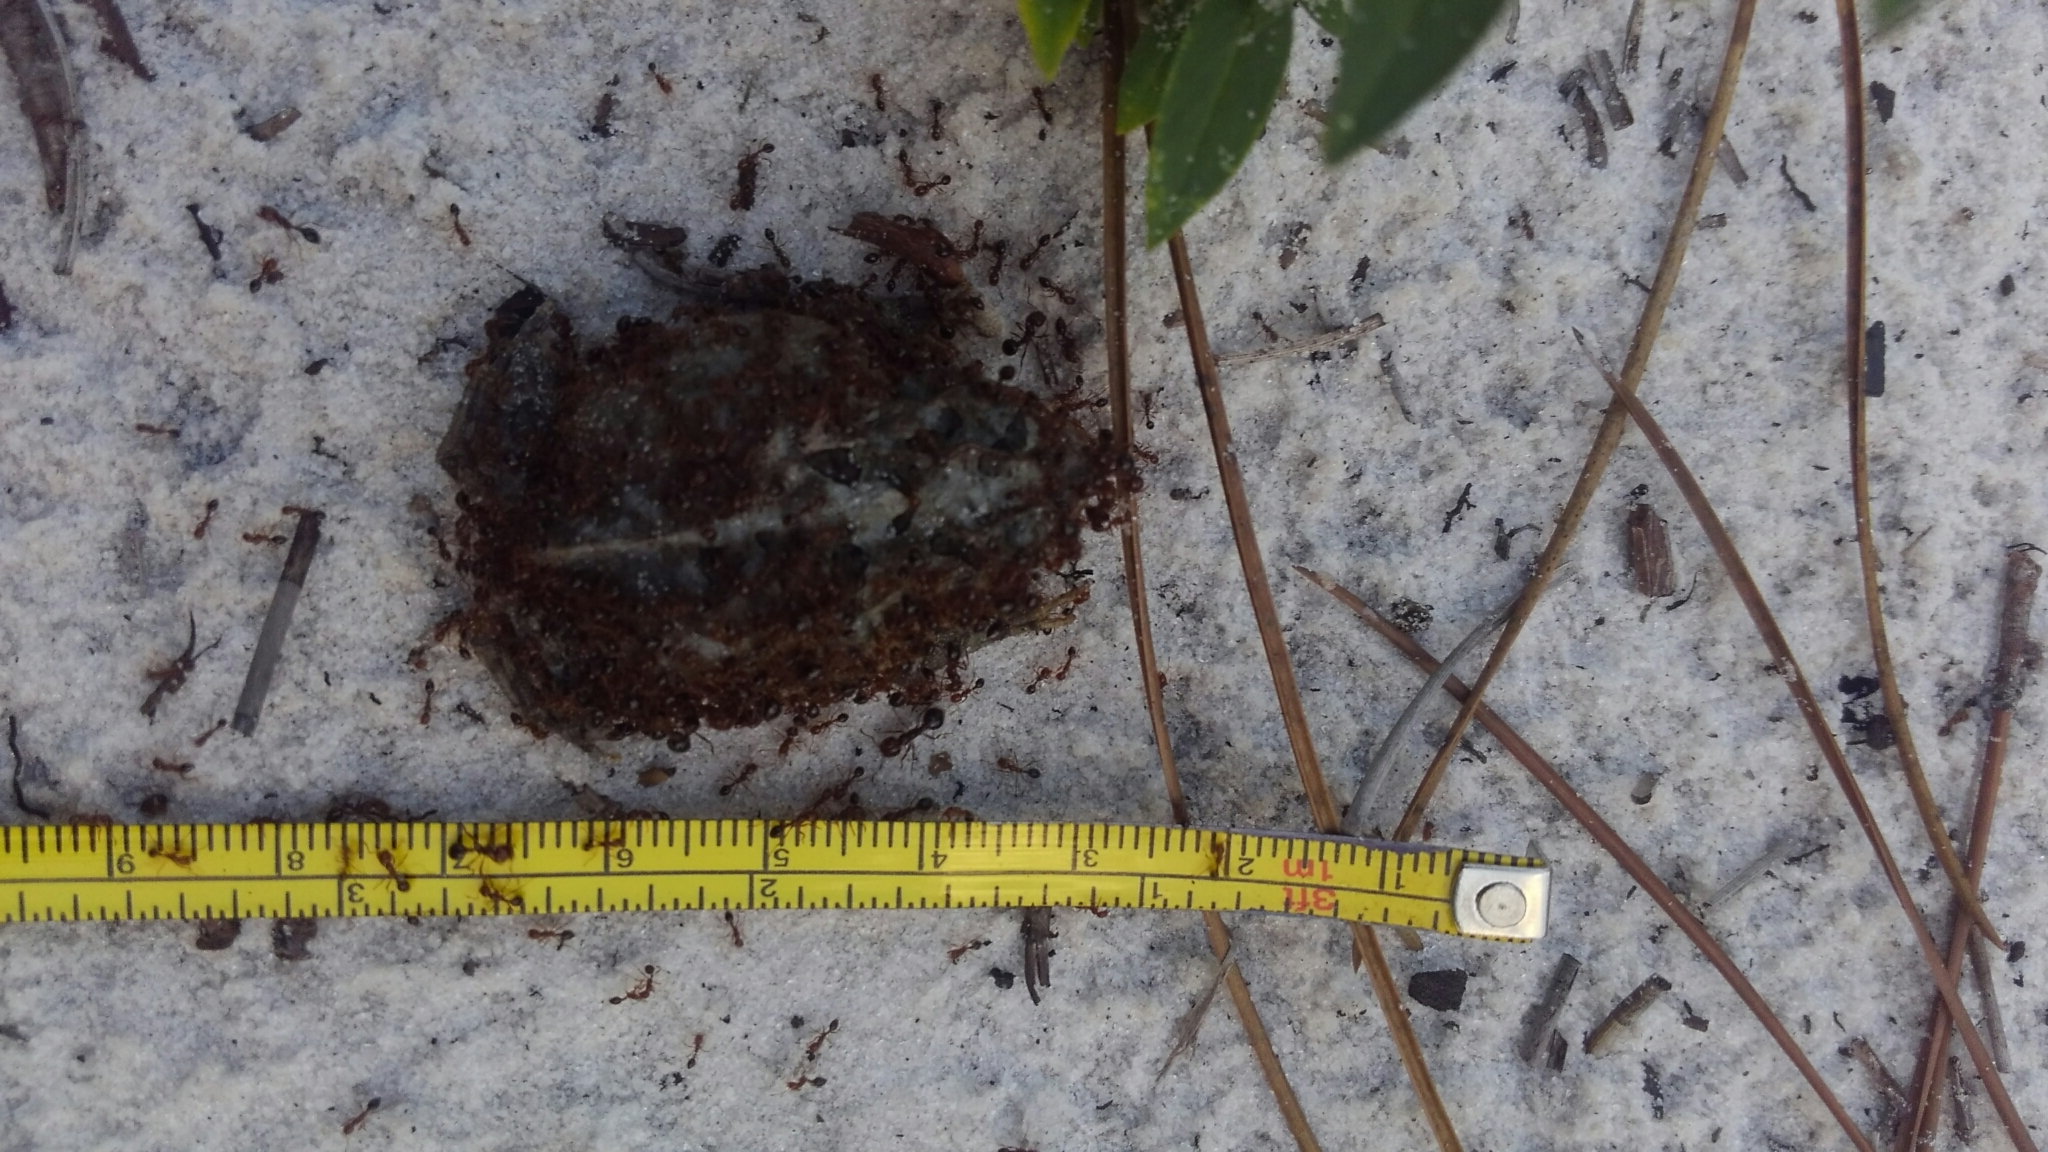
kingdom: Animalia
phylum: Chordata
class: Amphibia
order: Anura
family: Bufonidae
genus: Anaxyrus
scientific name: Anaxyrus terrestris
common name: Southern toad
